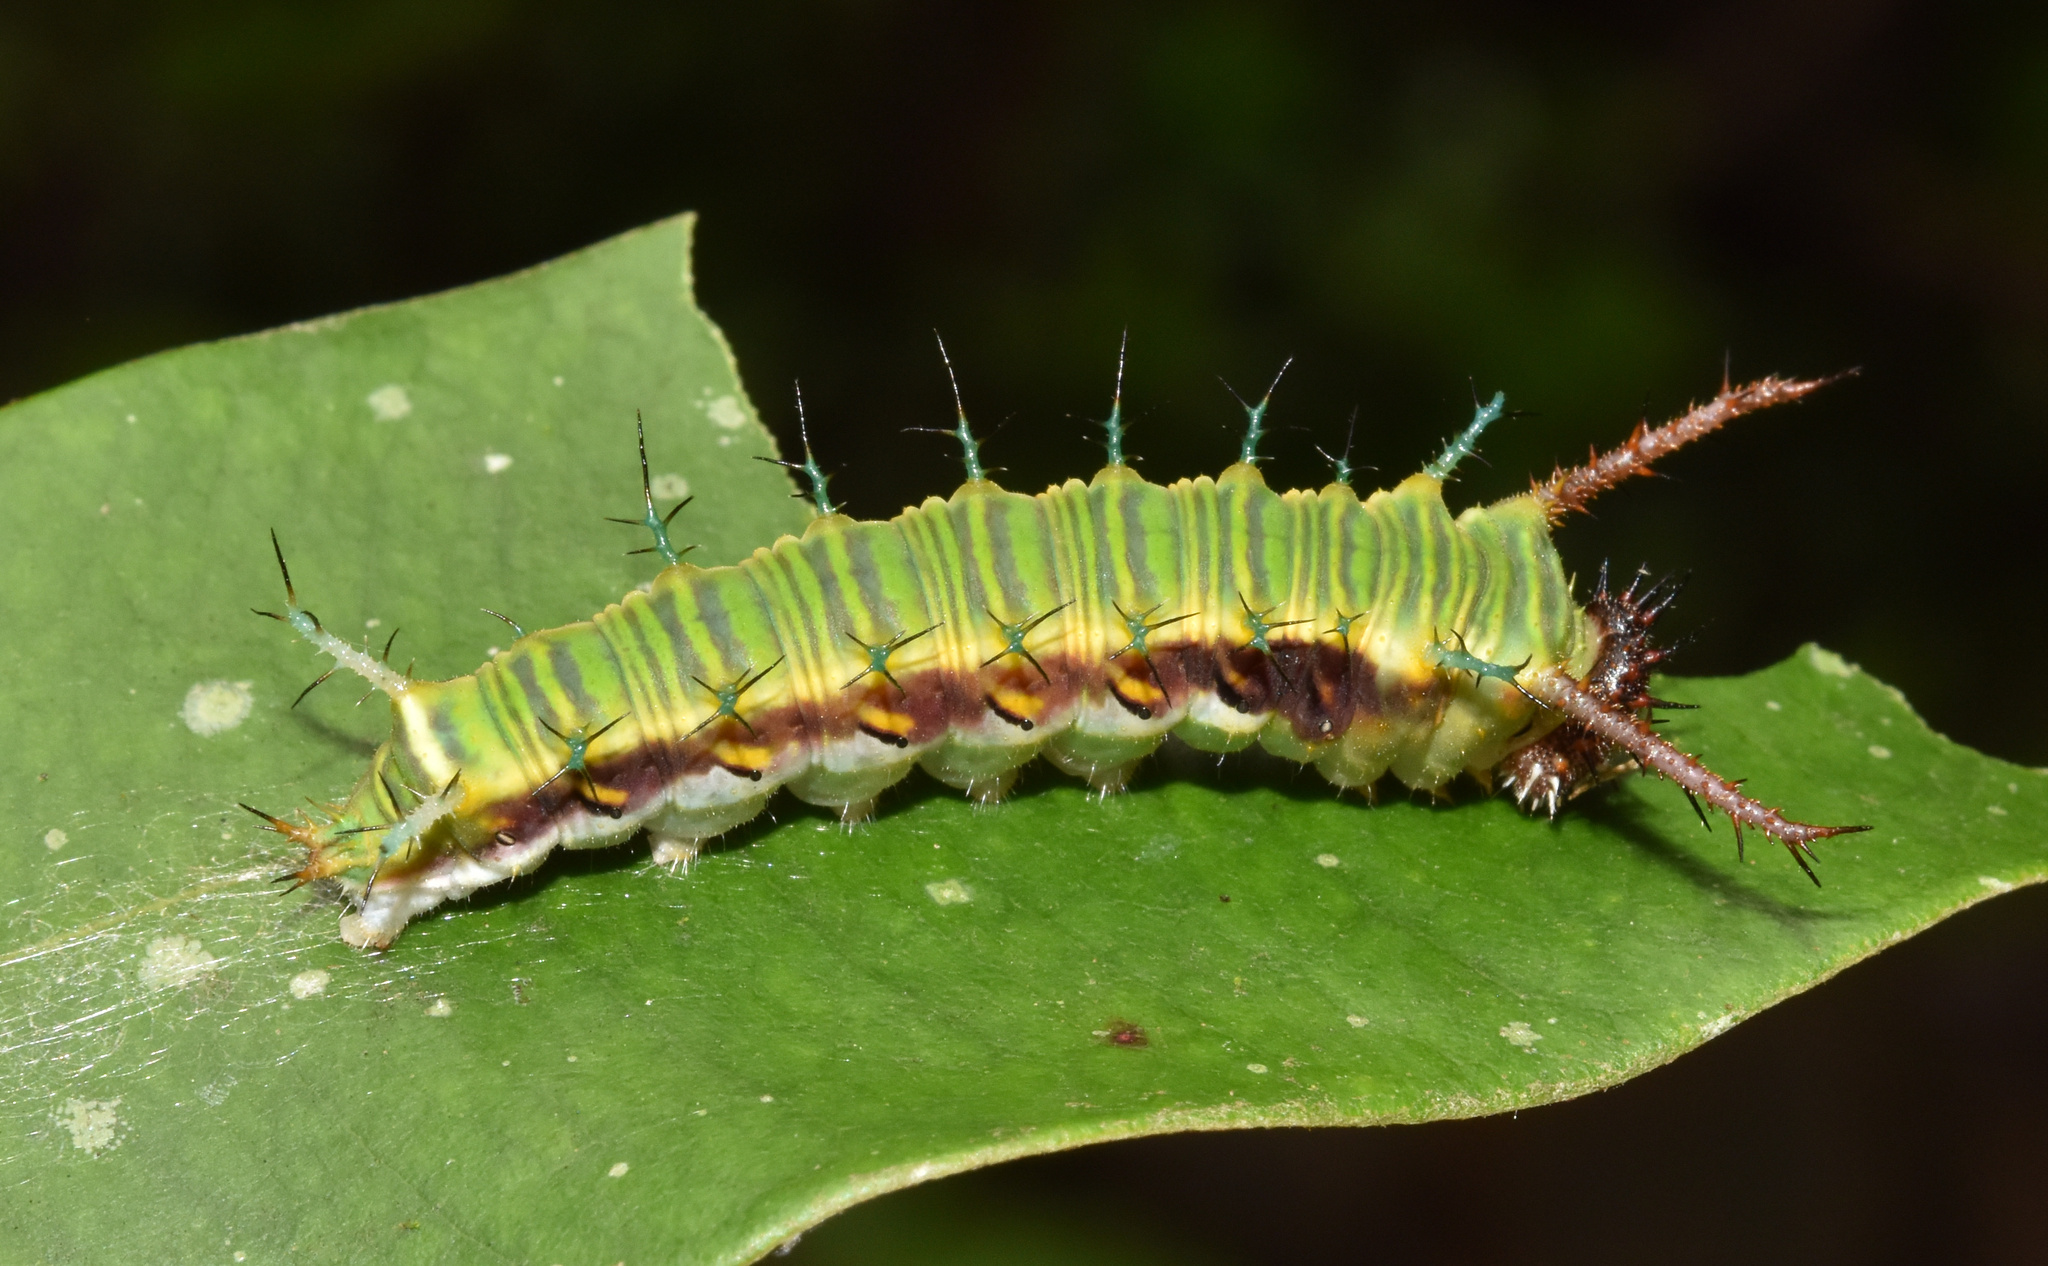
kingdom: Animalia
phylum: Arthropoda
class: Insecta
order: Lepidoptera
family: Nymphalidae
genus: Chloropoea
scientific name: Chloropoea lucretia
